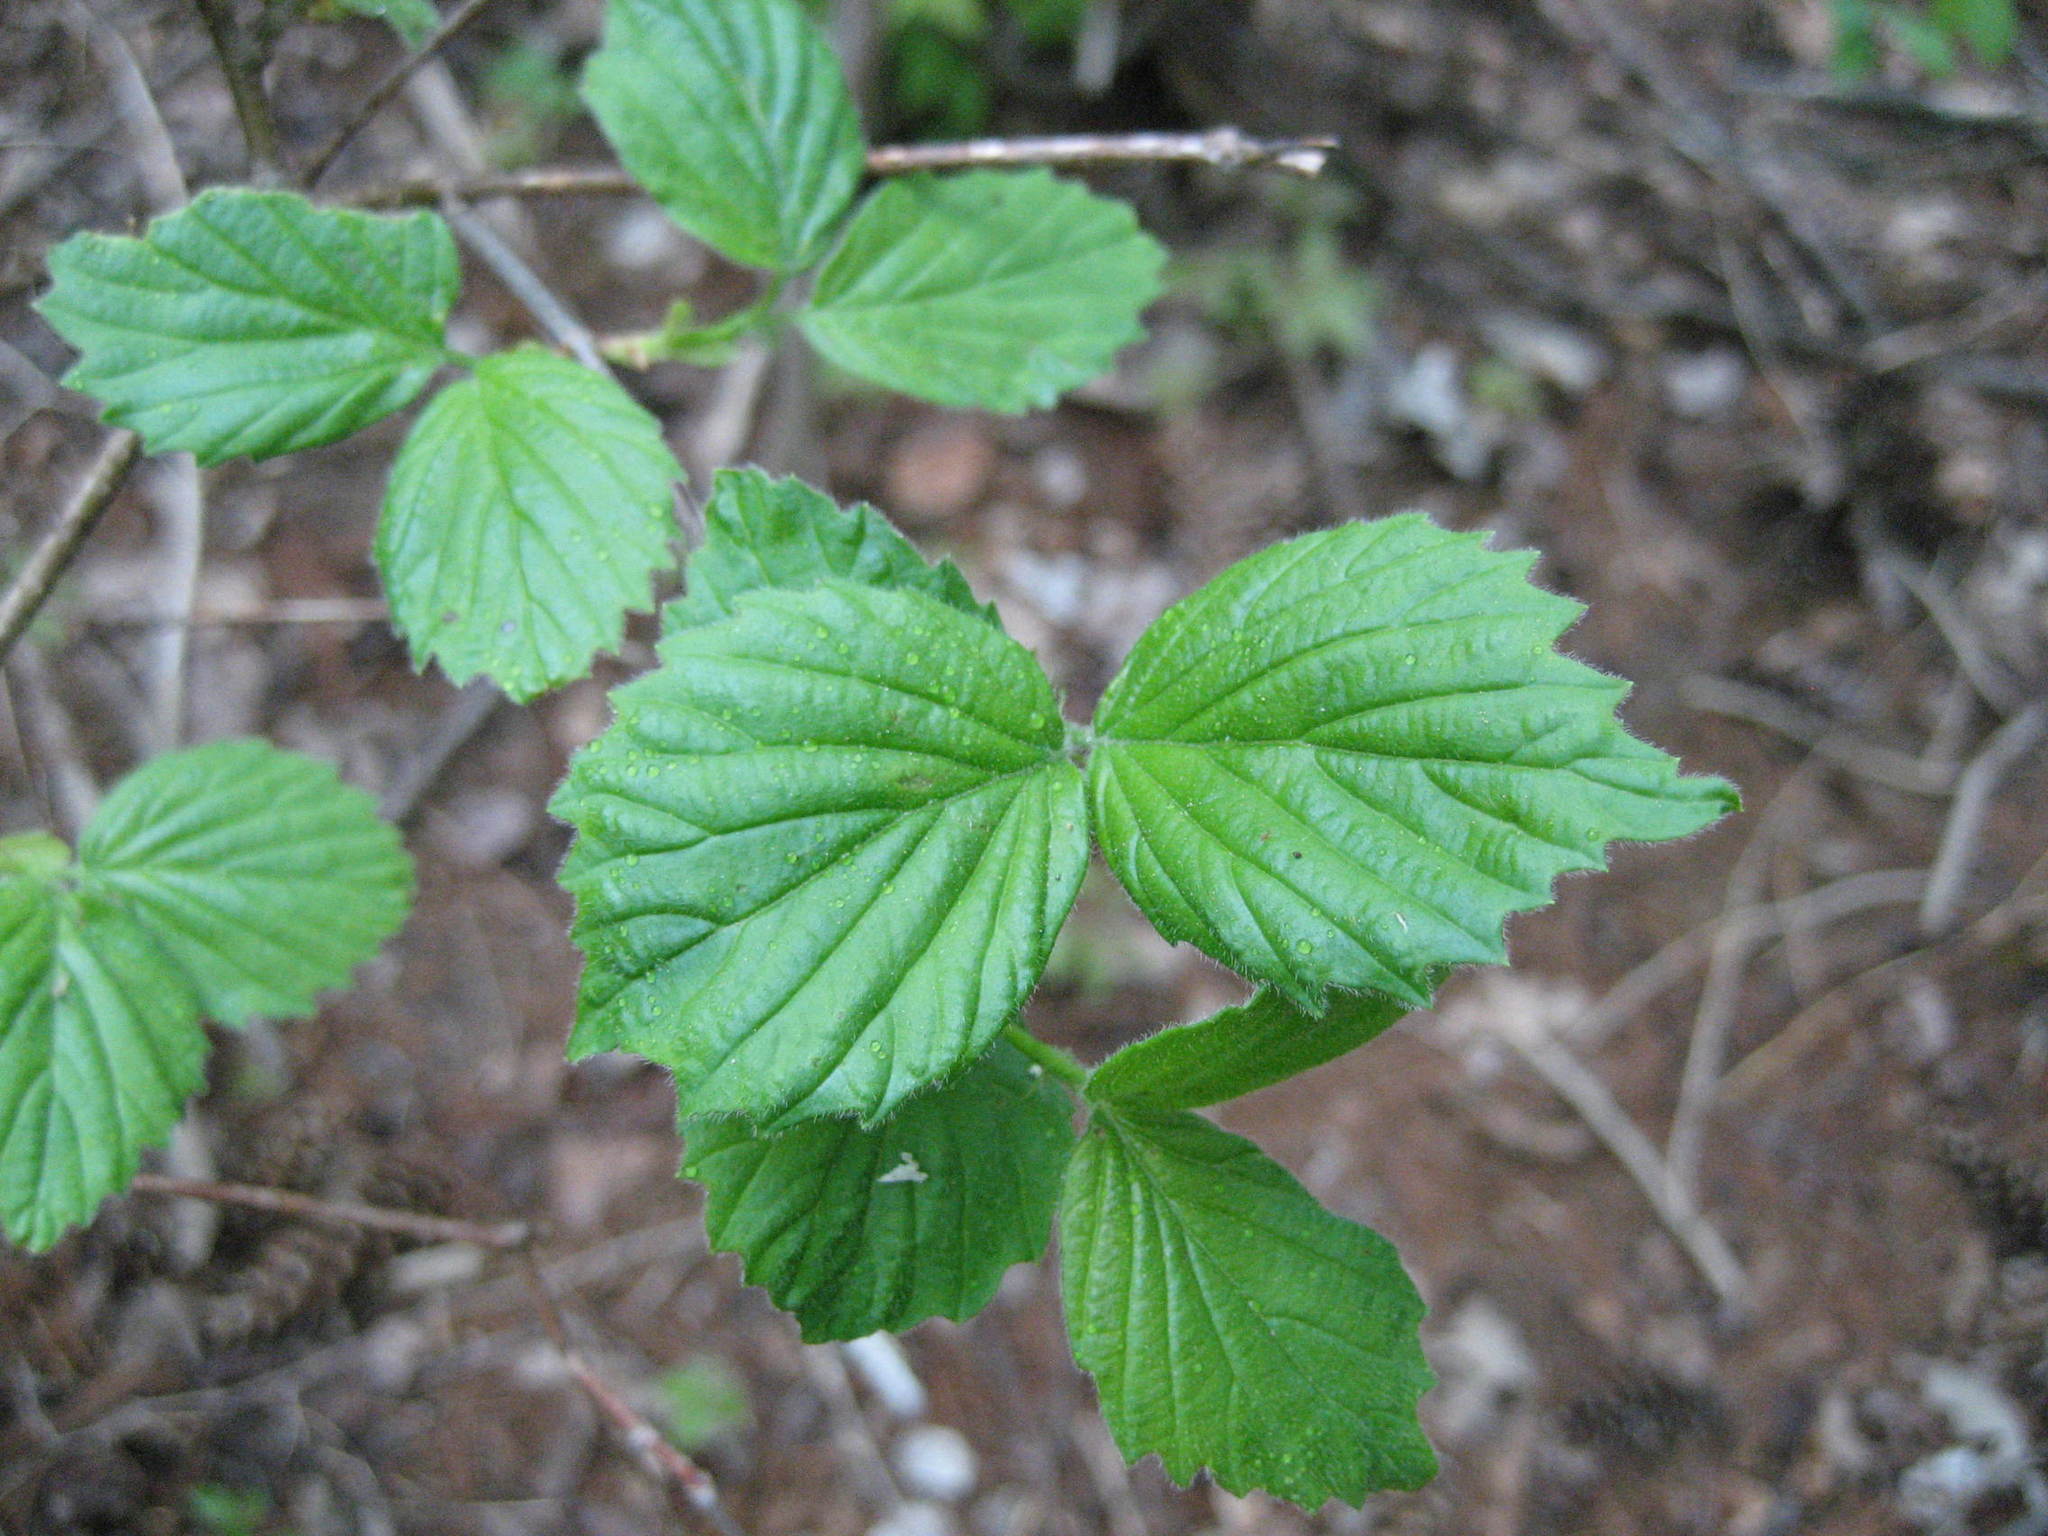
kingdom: Plantae
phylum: Tracheophyta
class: Magnoliopsida
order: Dipsacales
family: Viburnaceae
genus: Viburnum
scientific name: Viburnum rafinesqueanum
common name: Downy arrow-wood
